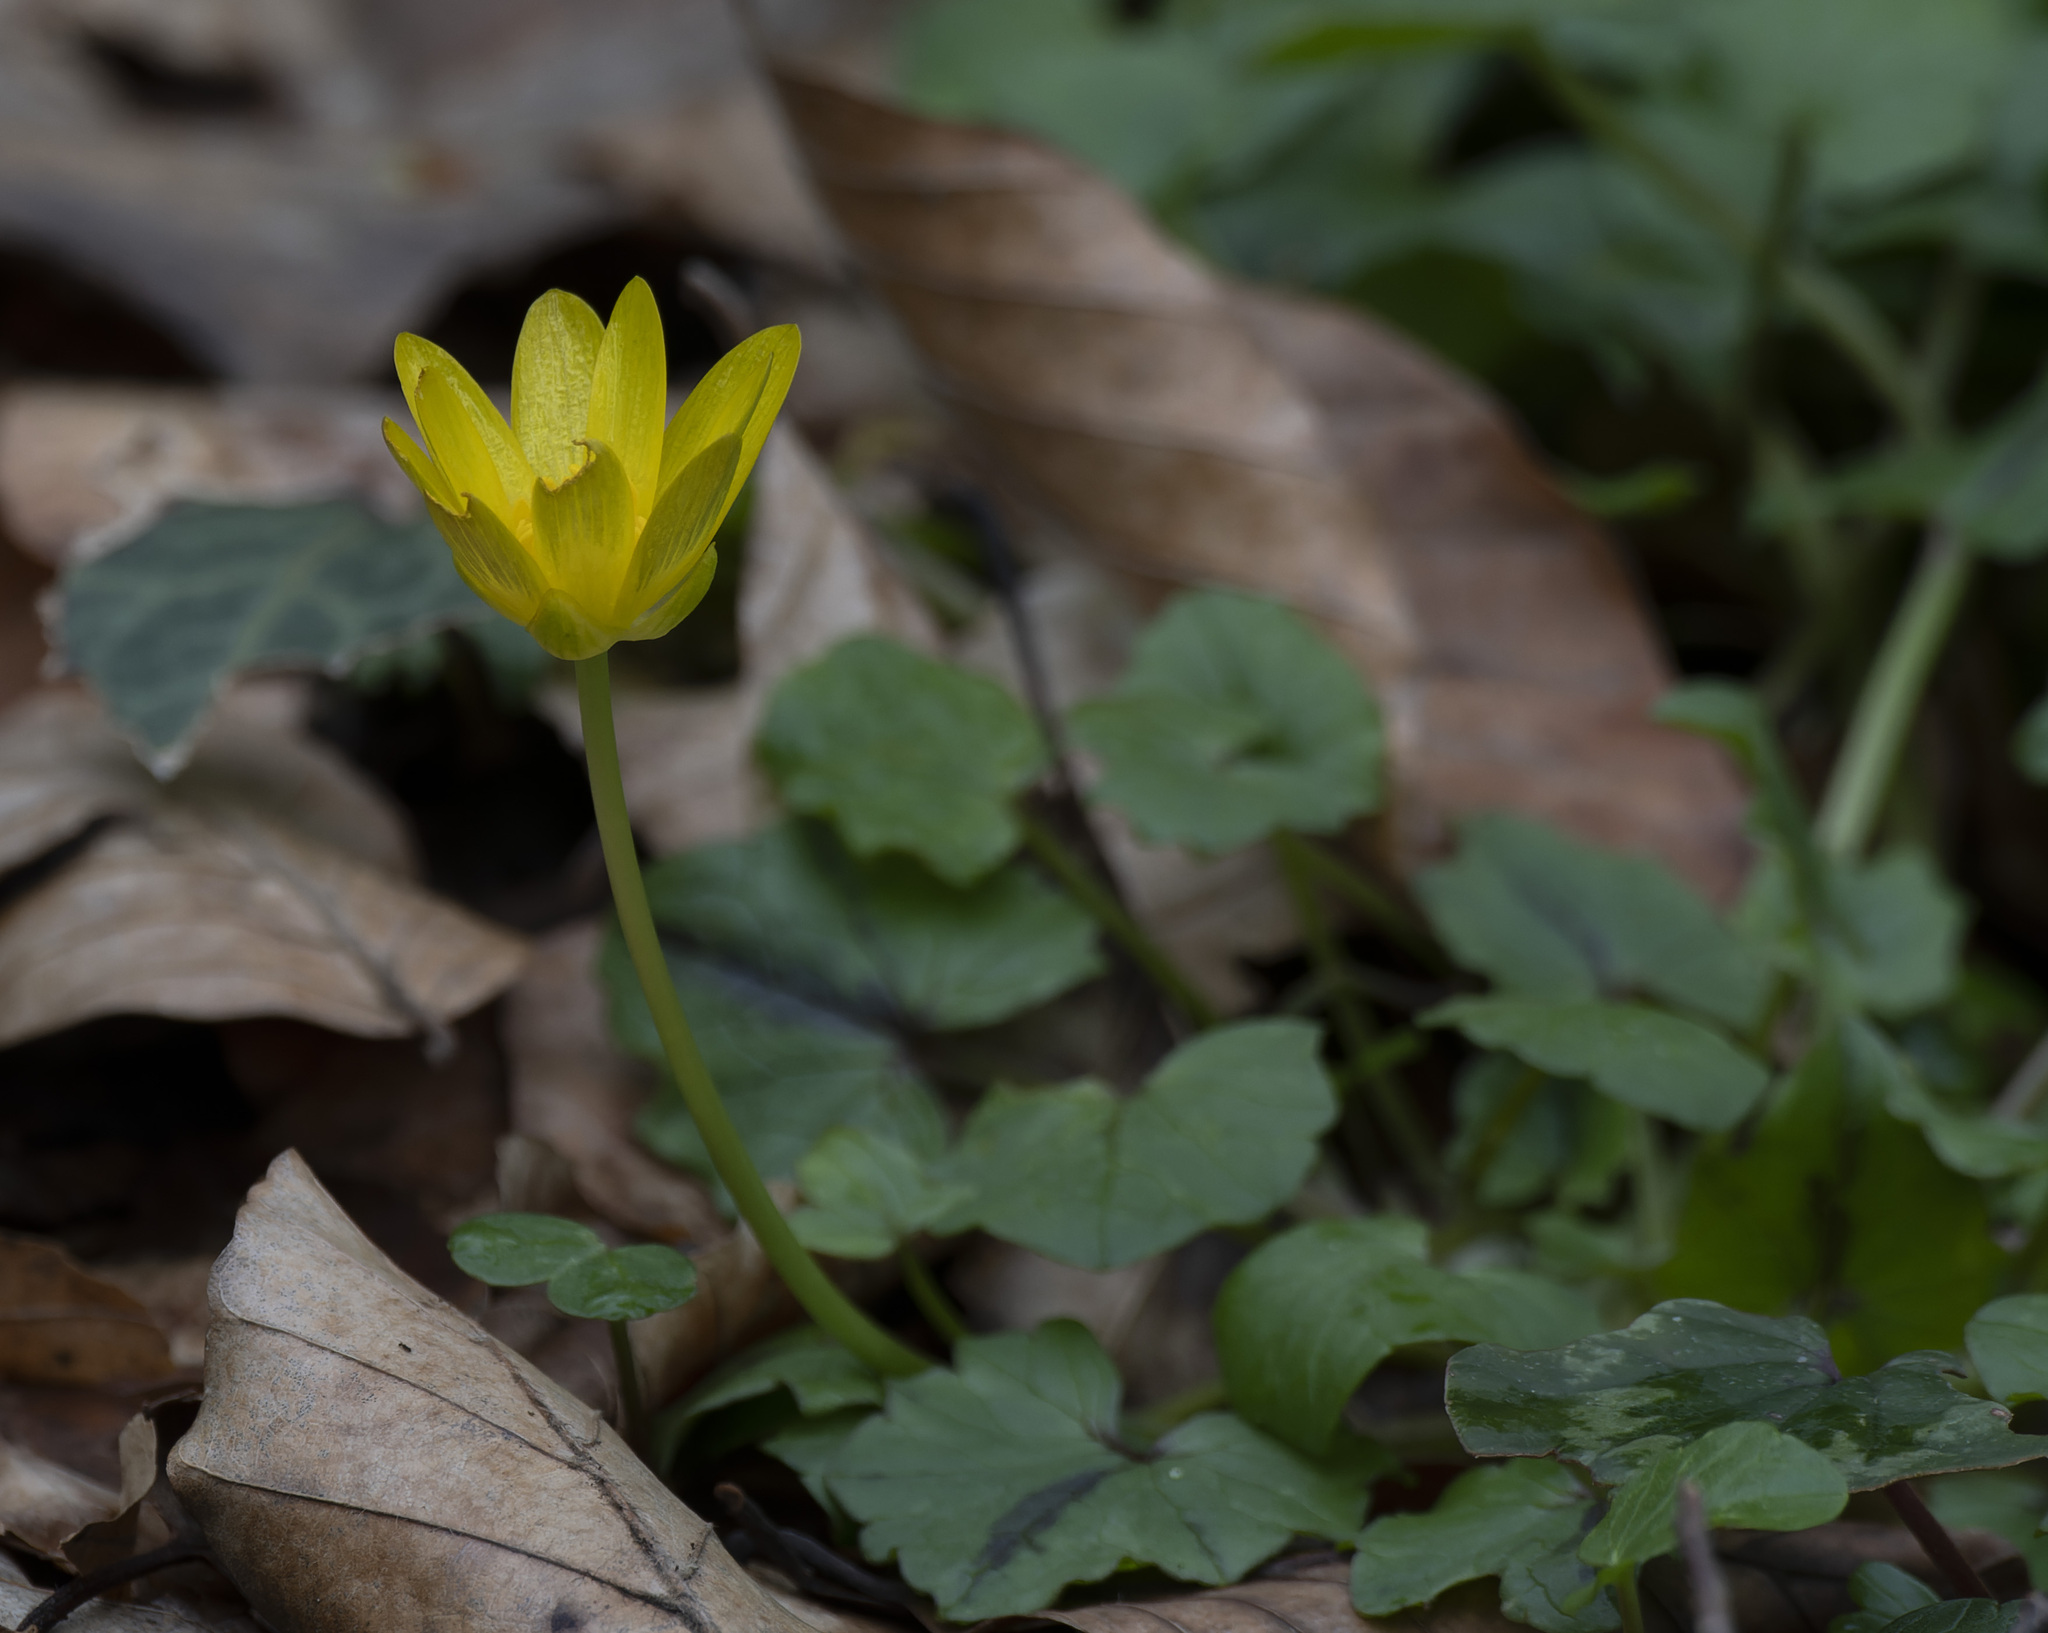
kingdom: Plantae
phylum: Tracheophyta
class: Magnoliopsida
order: Ranunculales
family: Ranunculaceae
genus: Ficaria
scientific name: Ficaria verna
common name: Lesser celandine
